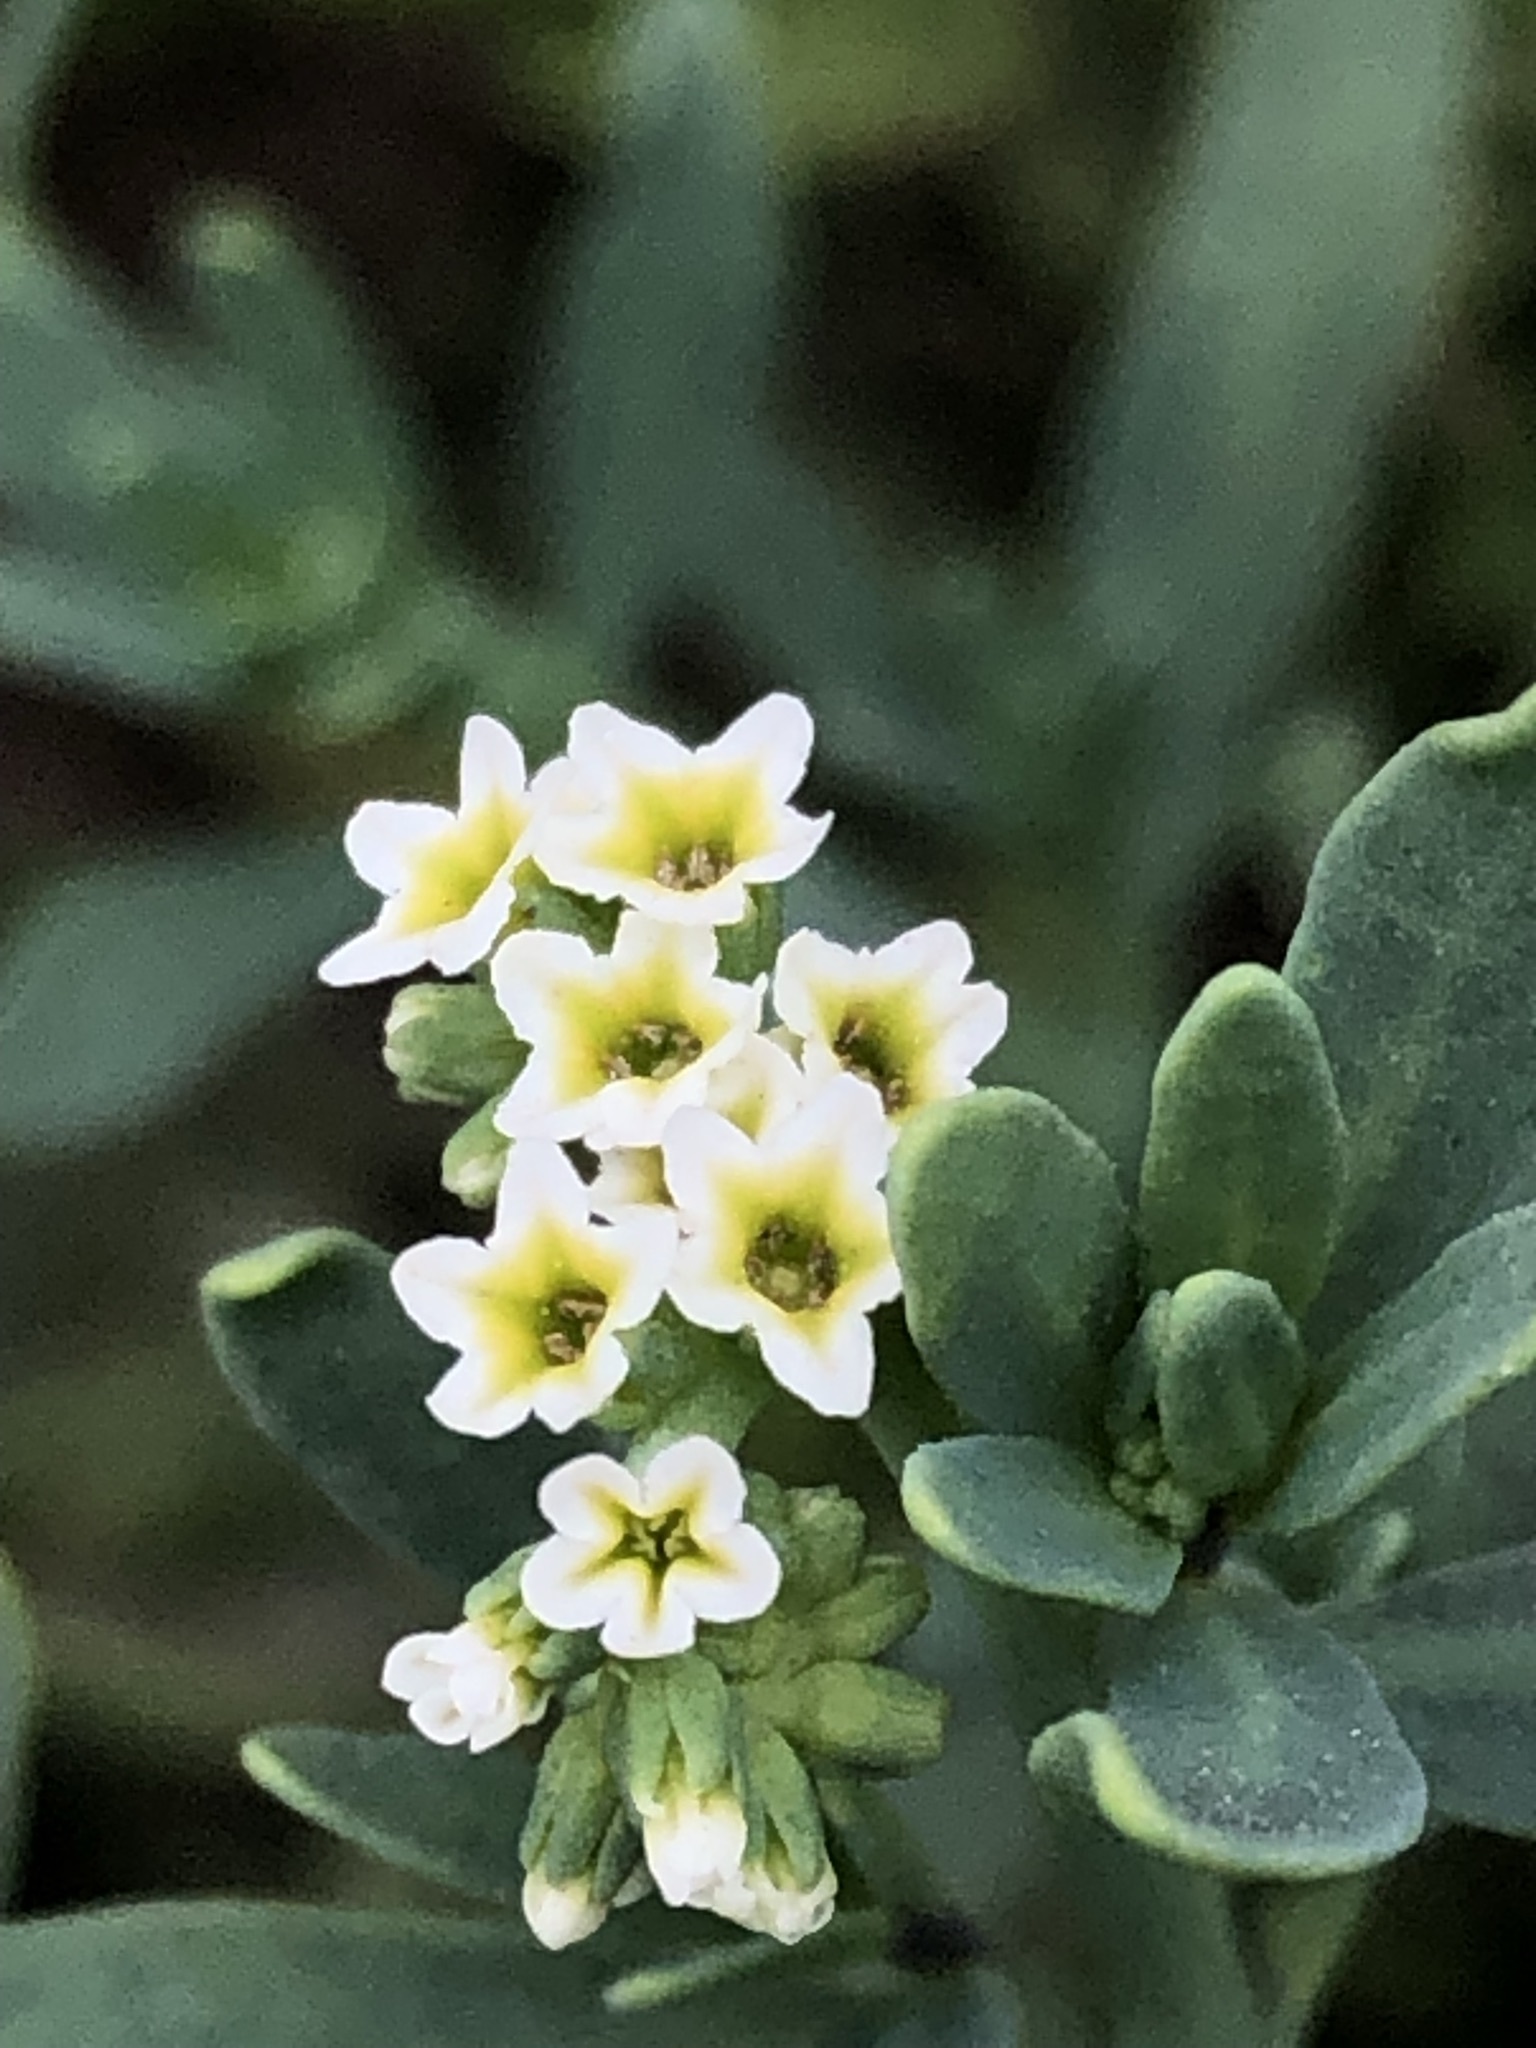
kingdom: Plantae
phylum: Tracheophyta
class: Magnoliopsida
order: Boraginales
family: Heliotropiaceae
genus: Heliotropium
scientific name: Heliotropium curassavicum
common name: Seaside heliotrope
